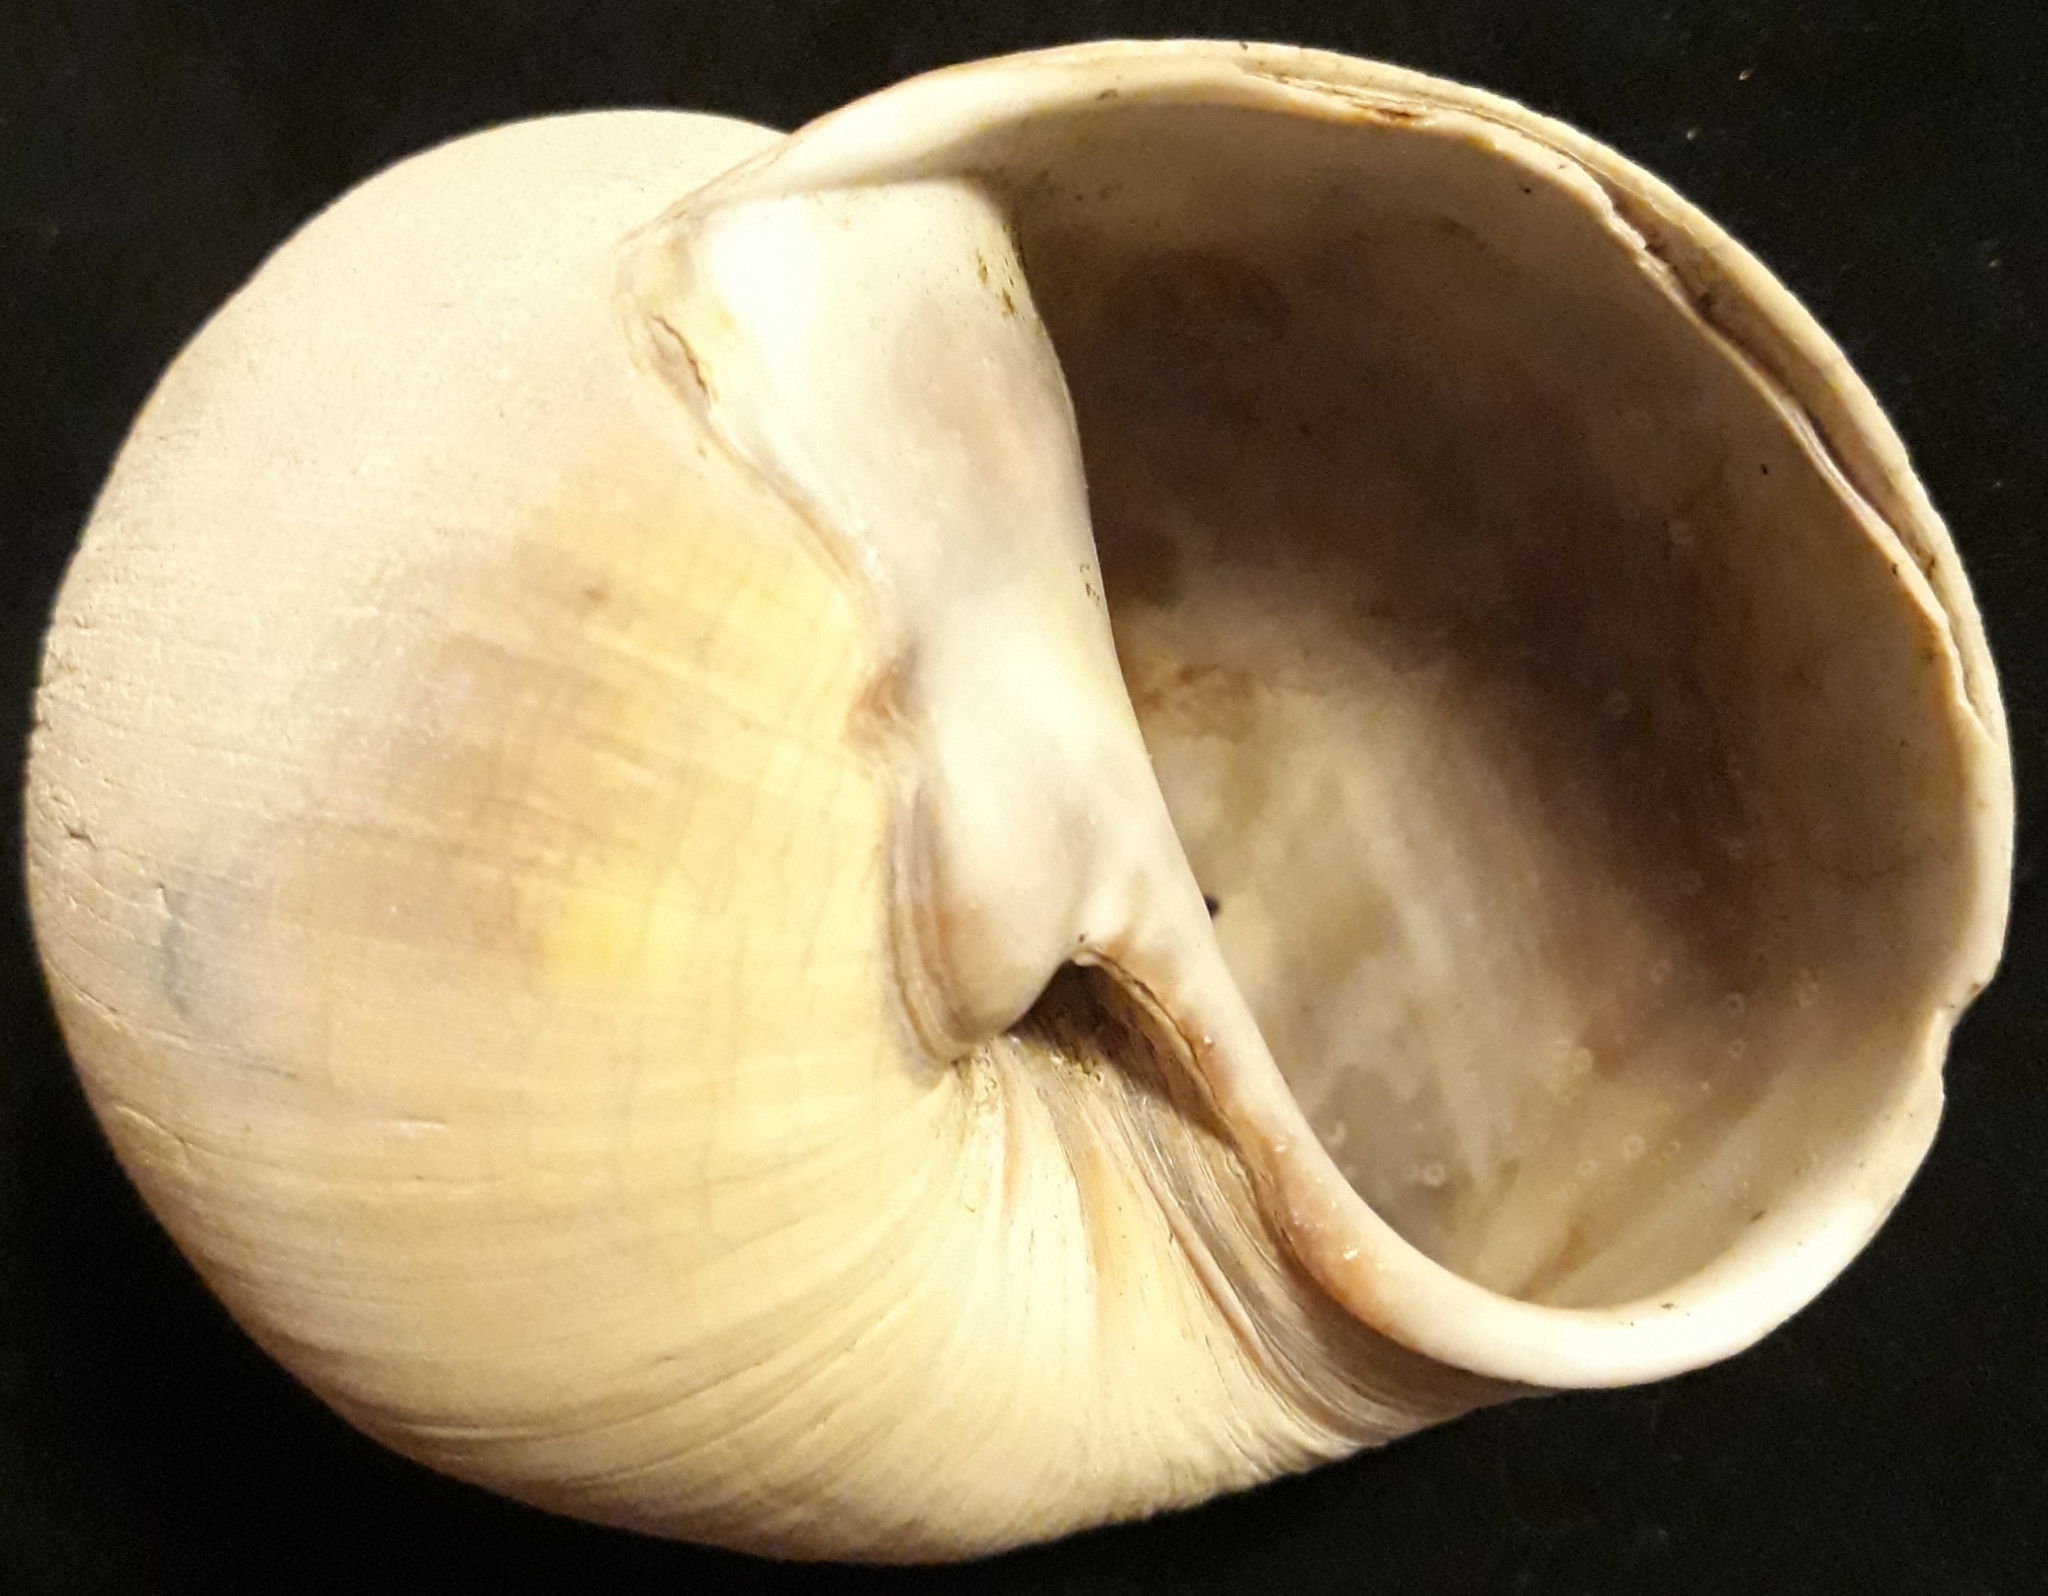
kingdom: Animalia
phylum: Mollusca
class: Gastropoda
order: Littorinimorpha
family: Naticidae
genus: Neverita
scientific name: Neverita lewisii
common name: Lewis' moonsnail
